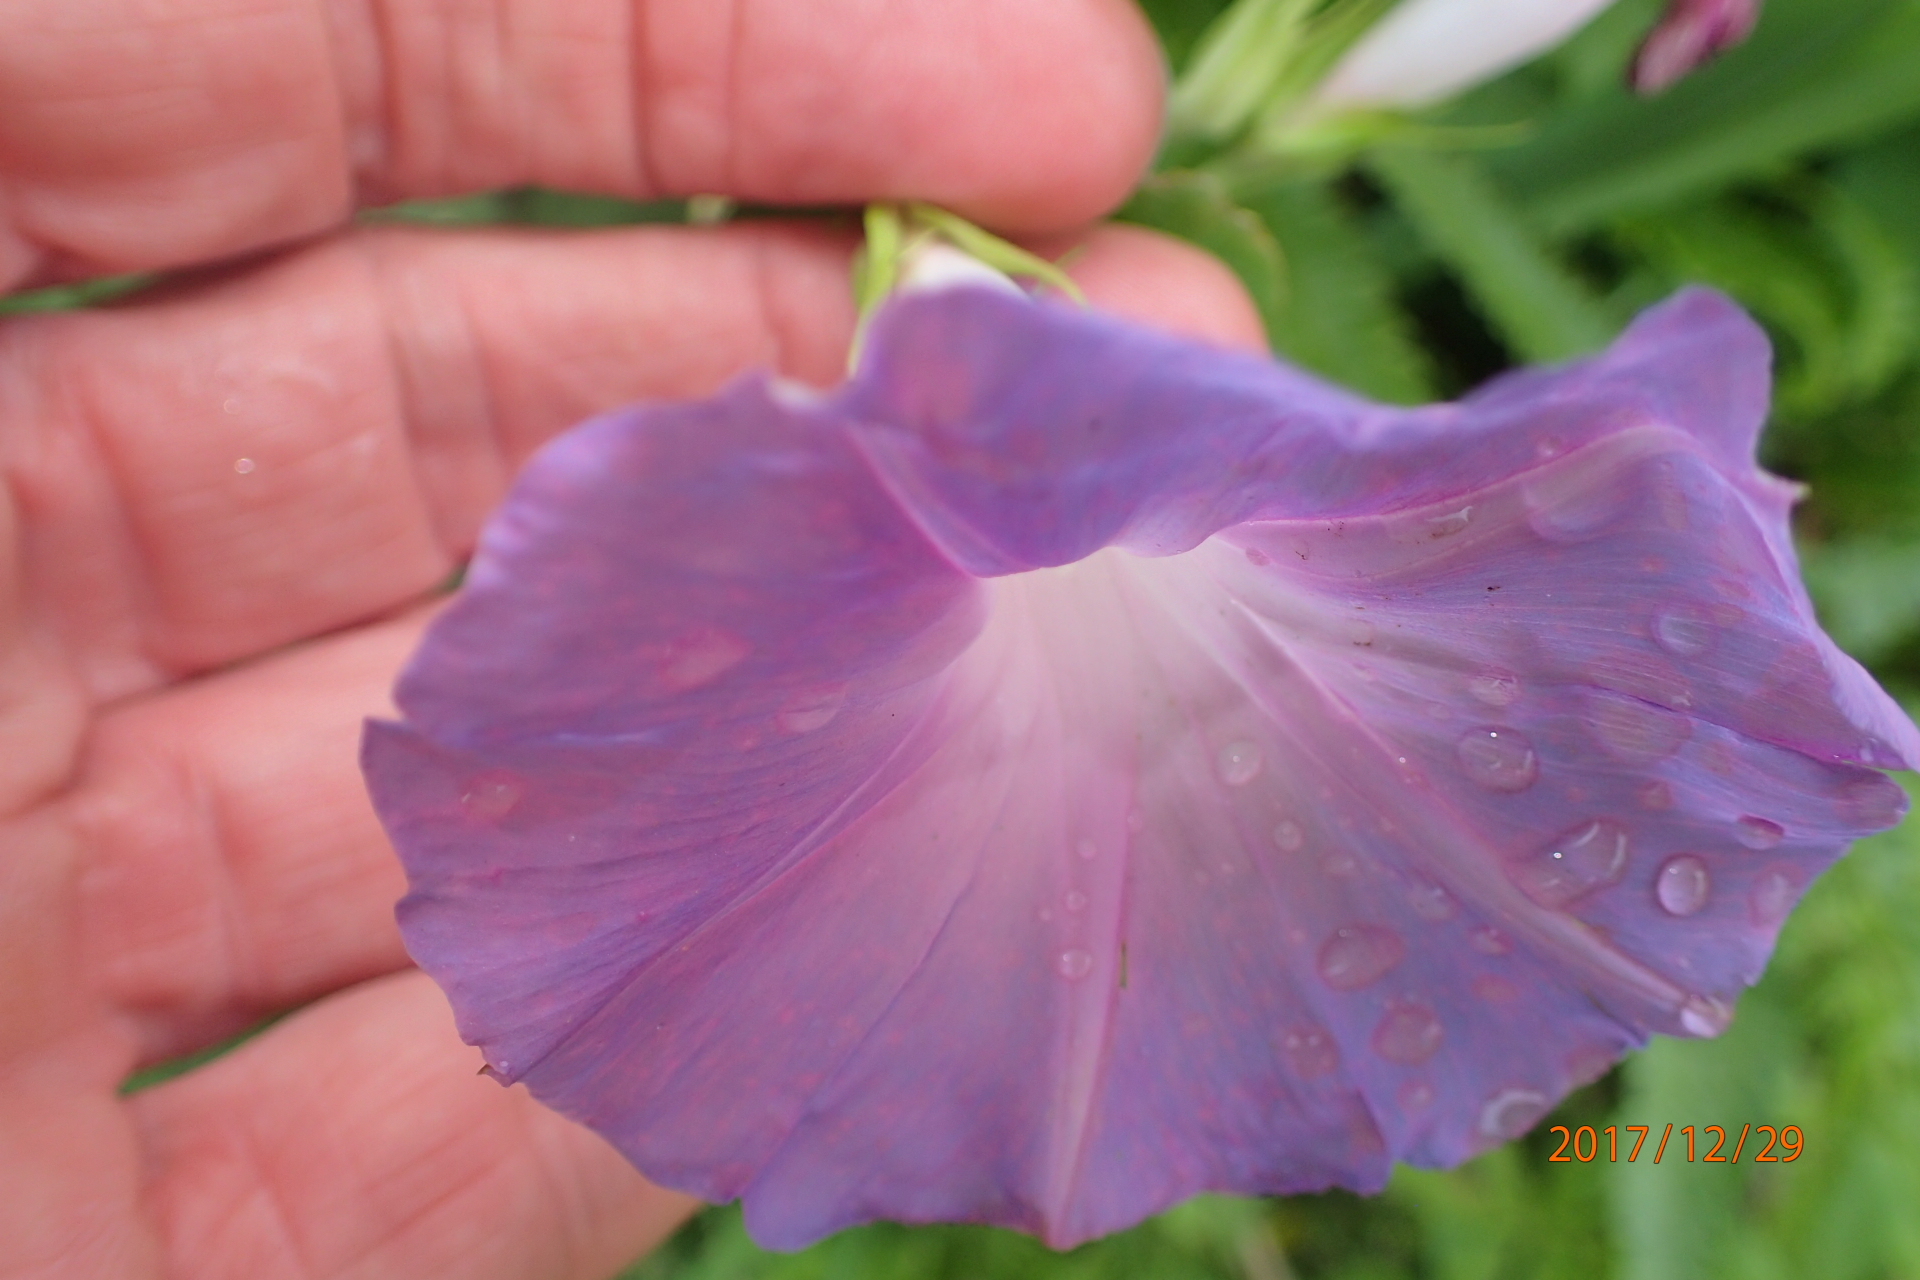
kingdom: Plantae
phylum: Tracheophyta
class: Magnoliopsida
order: Solanales
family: Convolvulaceae
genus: Ipomoea
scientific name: Ipomoea indica
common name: Blue dawnflower
